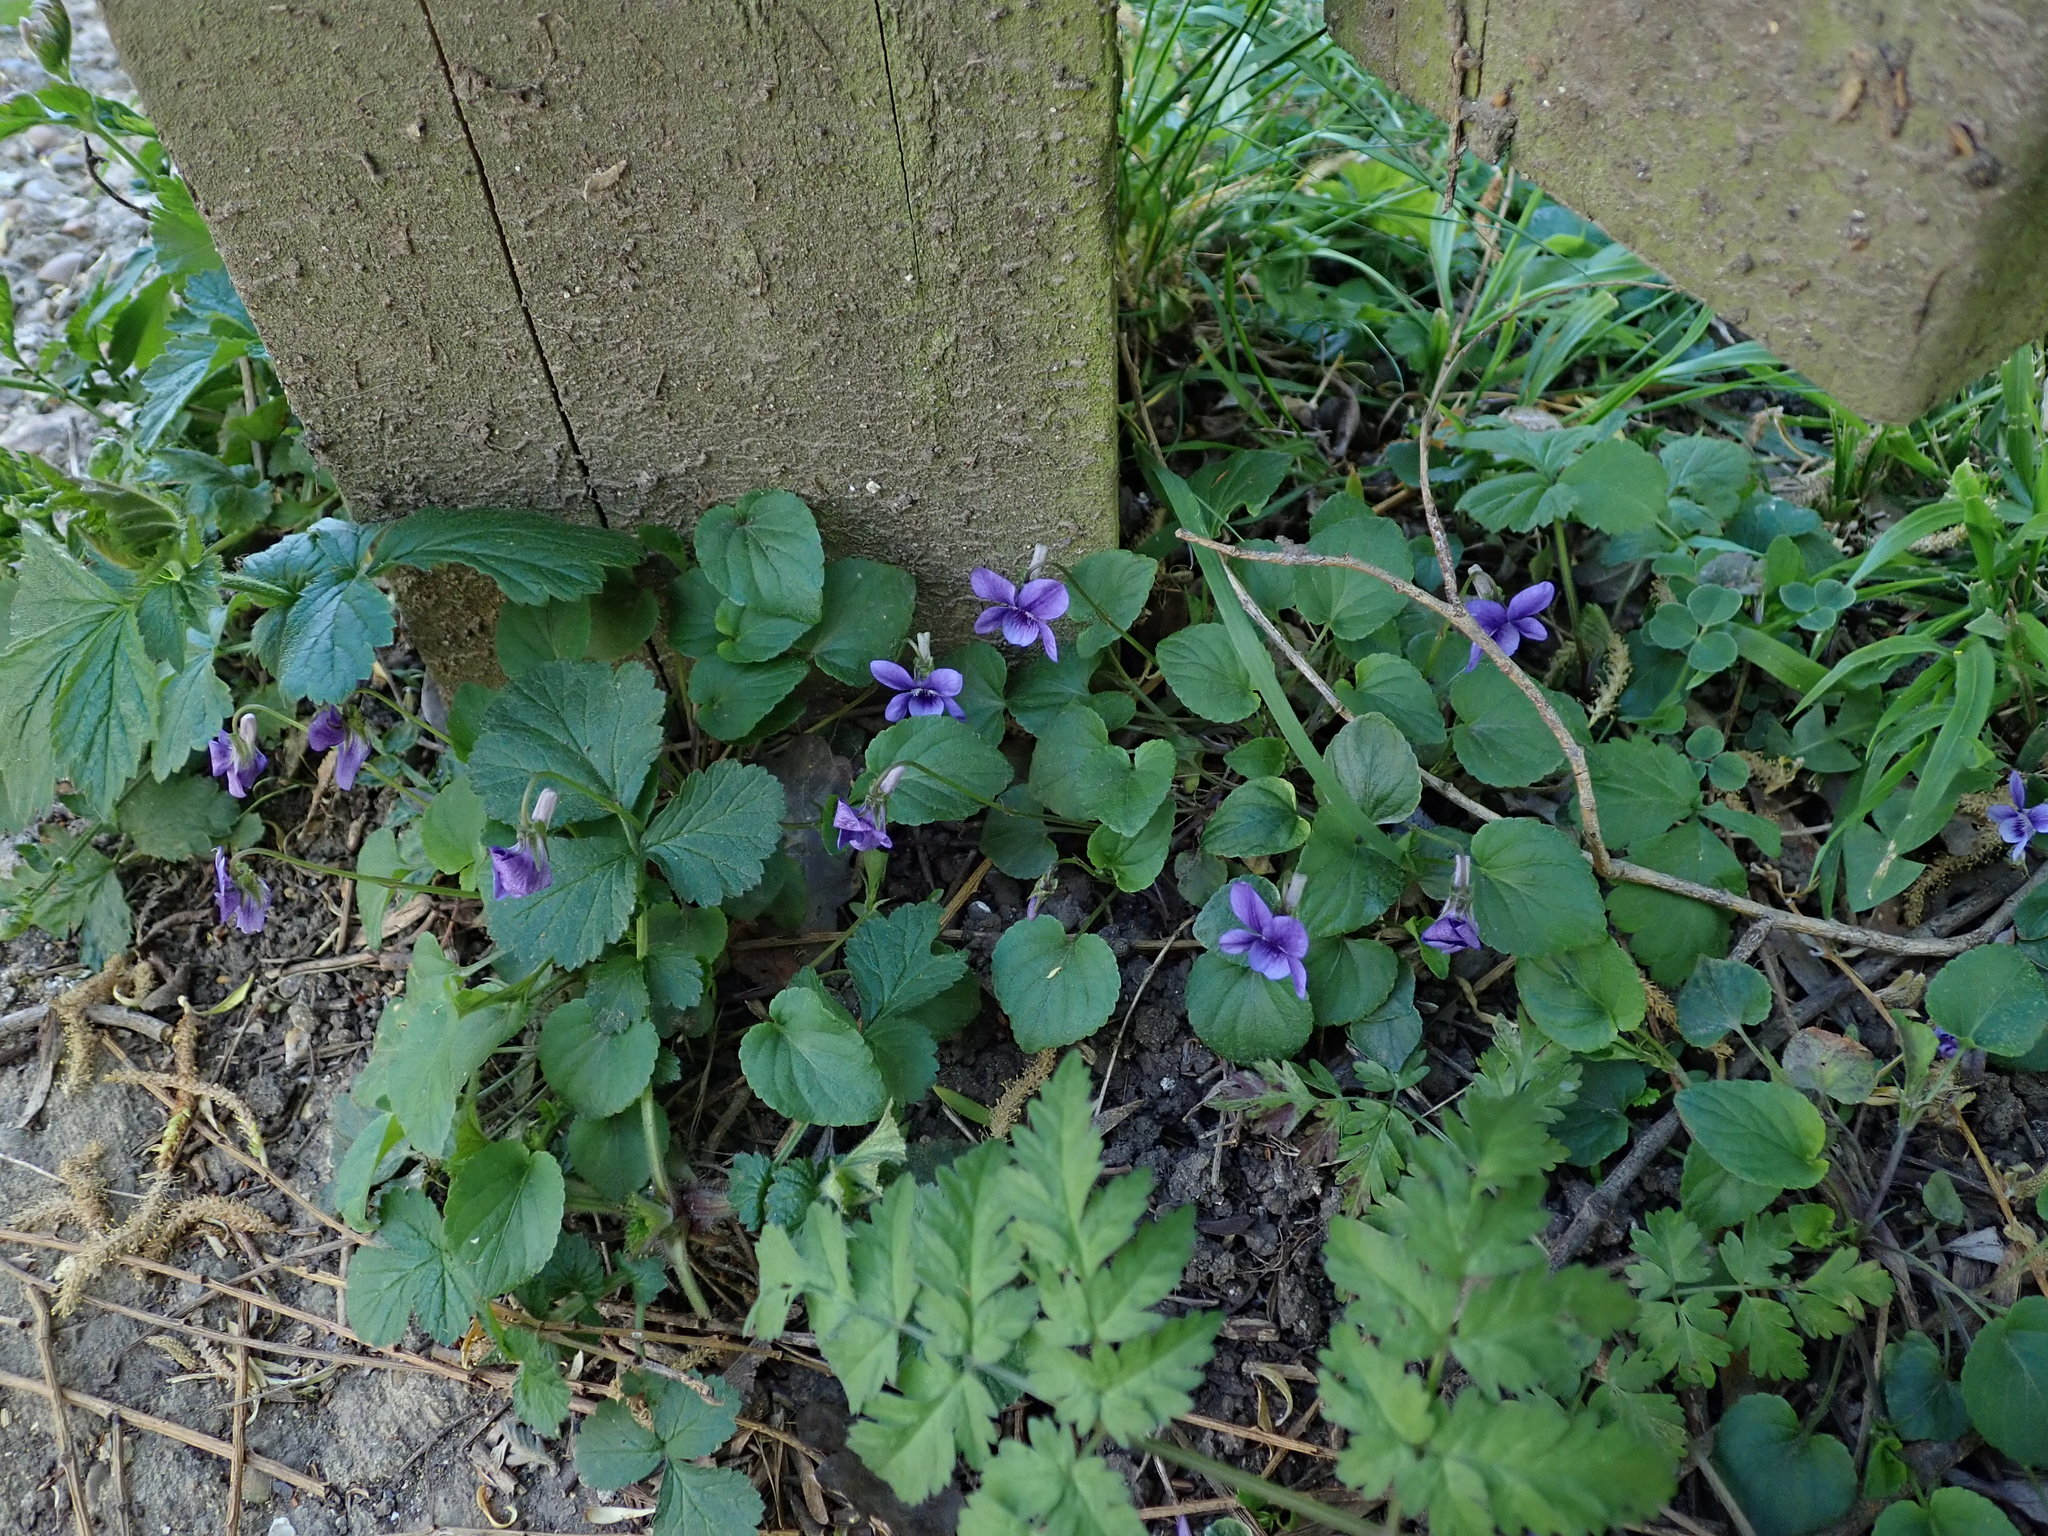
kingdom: Plantae
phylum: Tracheophyta
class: Magnoliopsida
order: Malpighiales
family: Violaceae
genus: Viola
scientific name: Viola riviniana
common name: Common dog-violet
